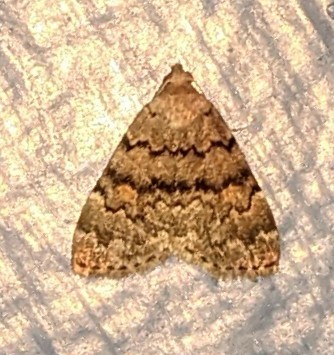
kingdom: Animalia
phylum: Arthropoda
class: Insecta
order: Lepidoptera
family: Erebidae
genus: Idia
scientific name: Idia aemula
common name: Common idia moth
